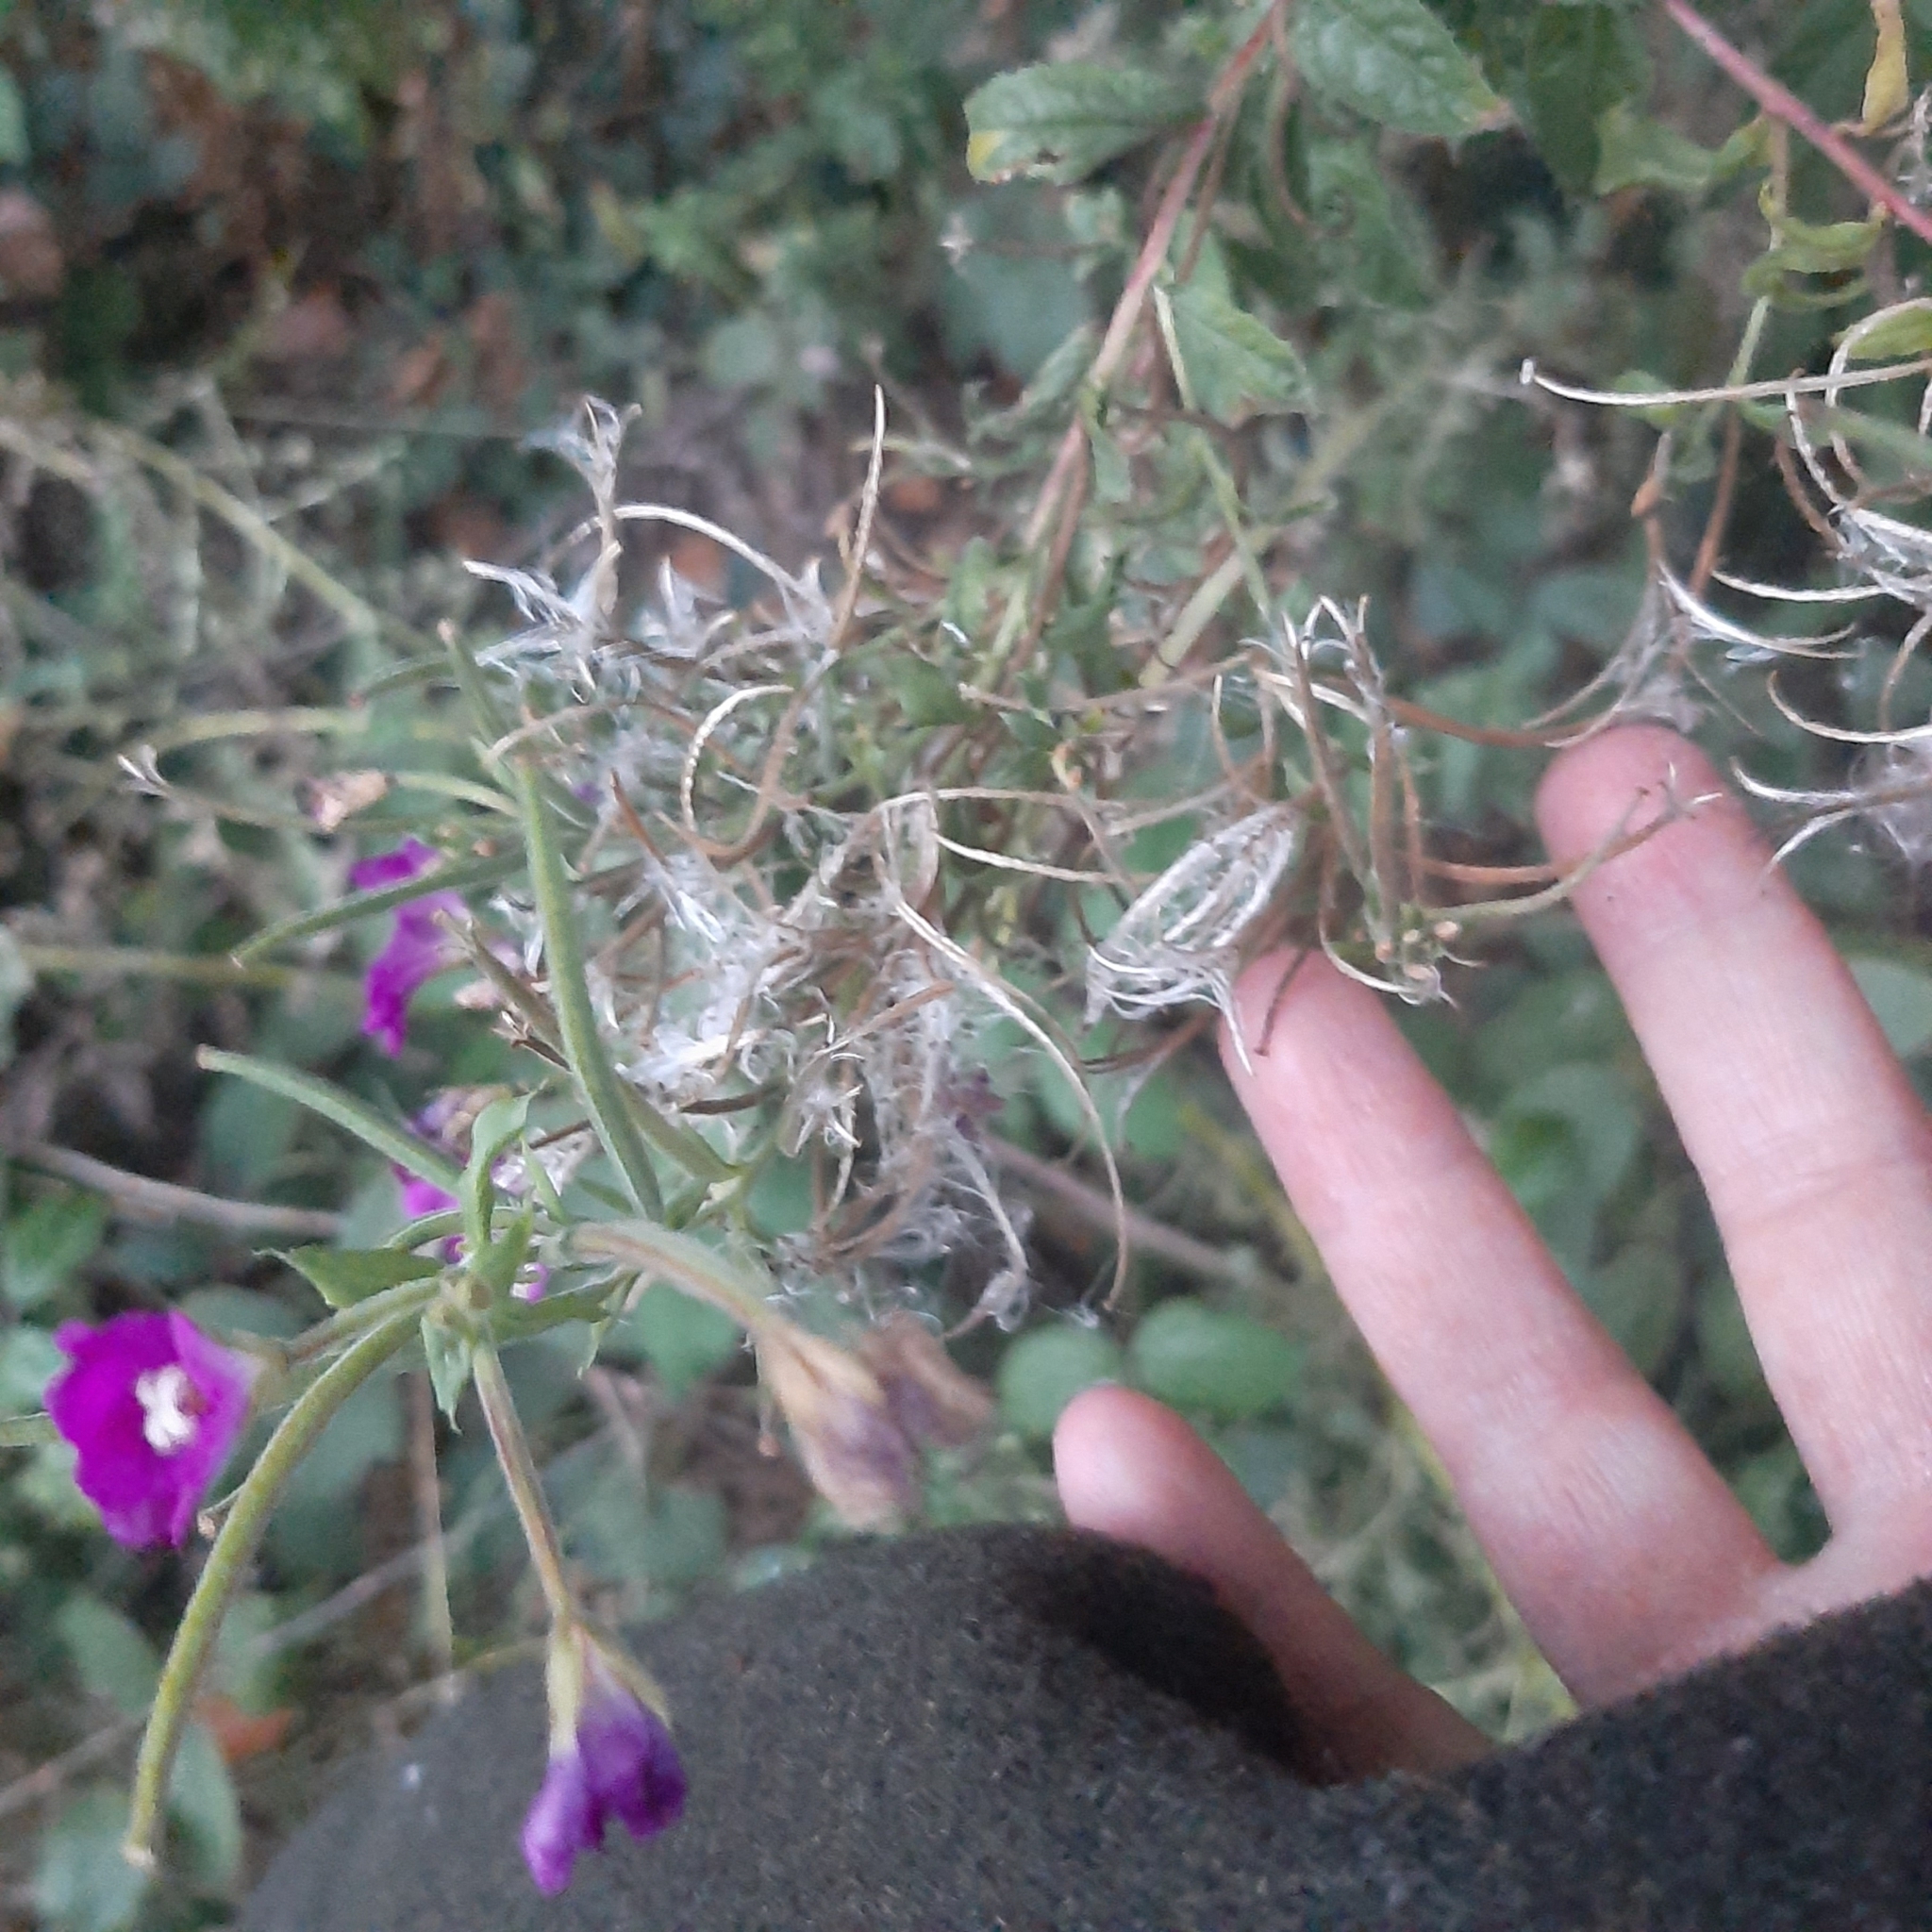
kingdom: Plantae
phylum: Tracheophyta
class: Magnoliopsida
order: Myrtales
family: Onagraceae
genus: Epilobium
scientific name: Epilobium hirsutum
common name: Great willowherb
